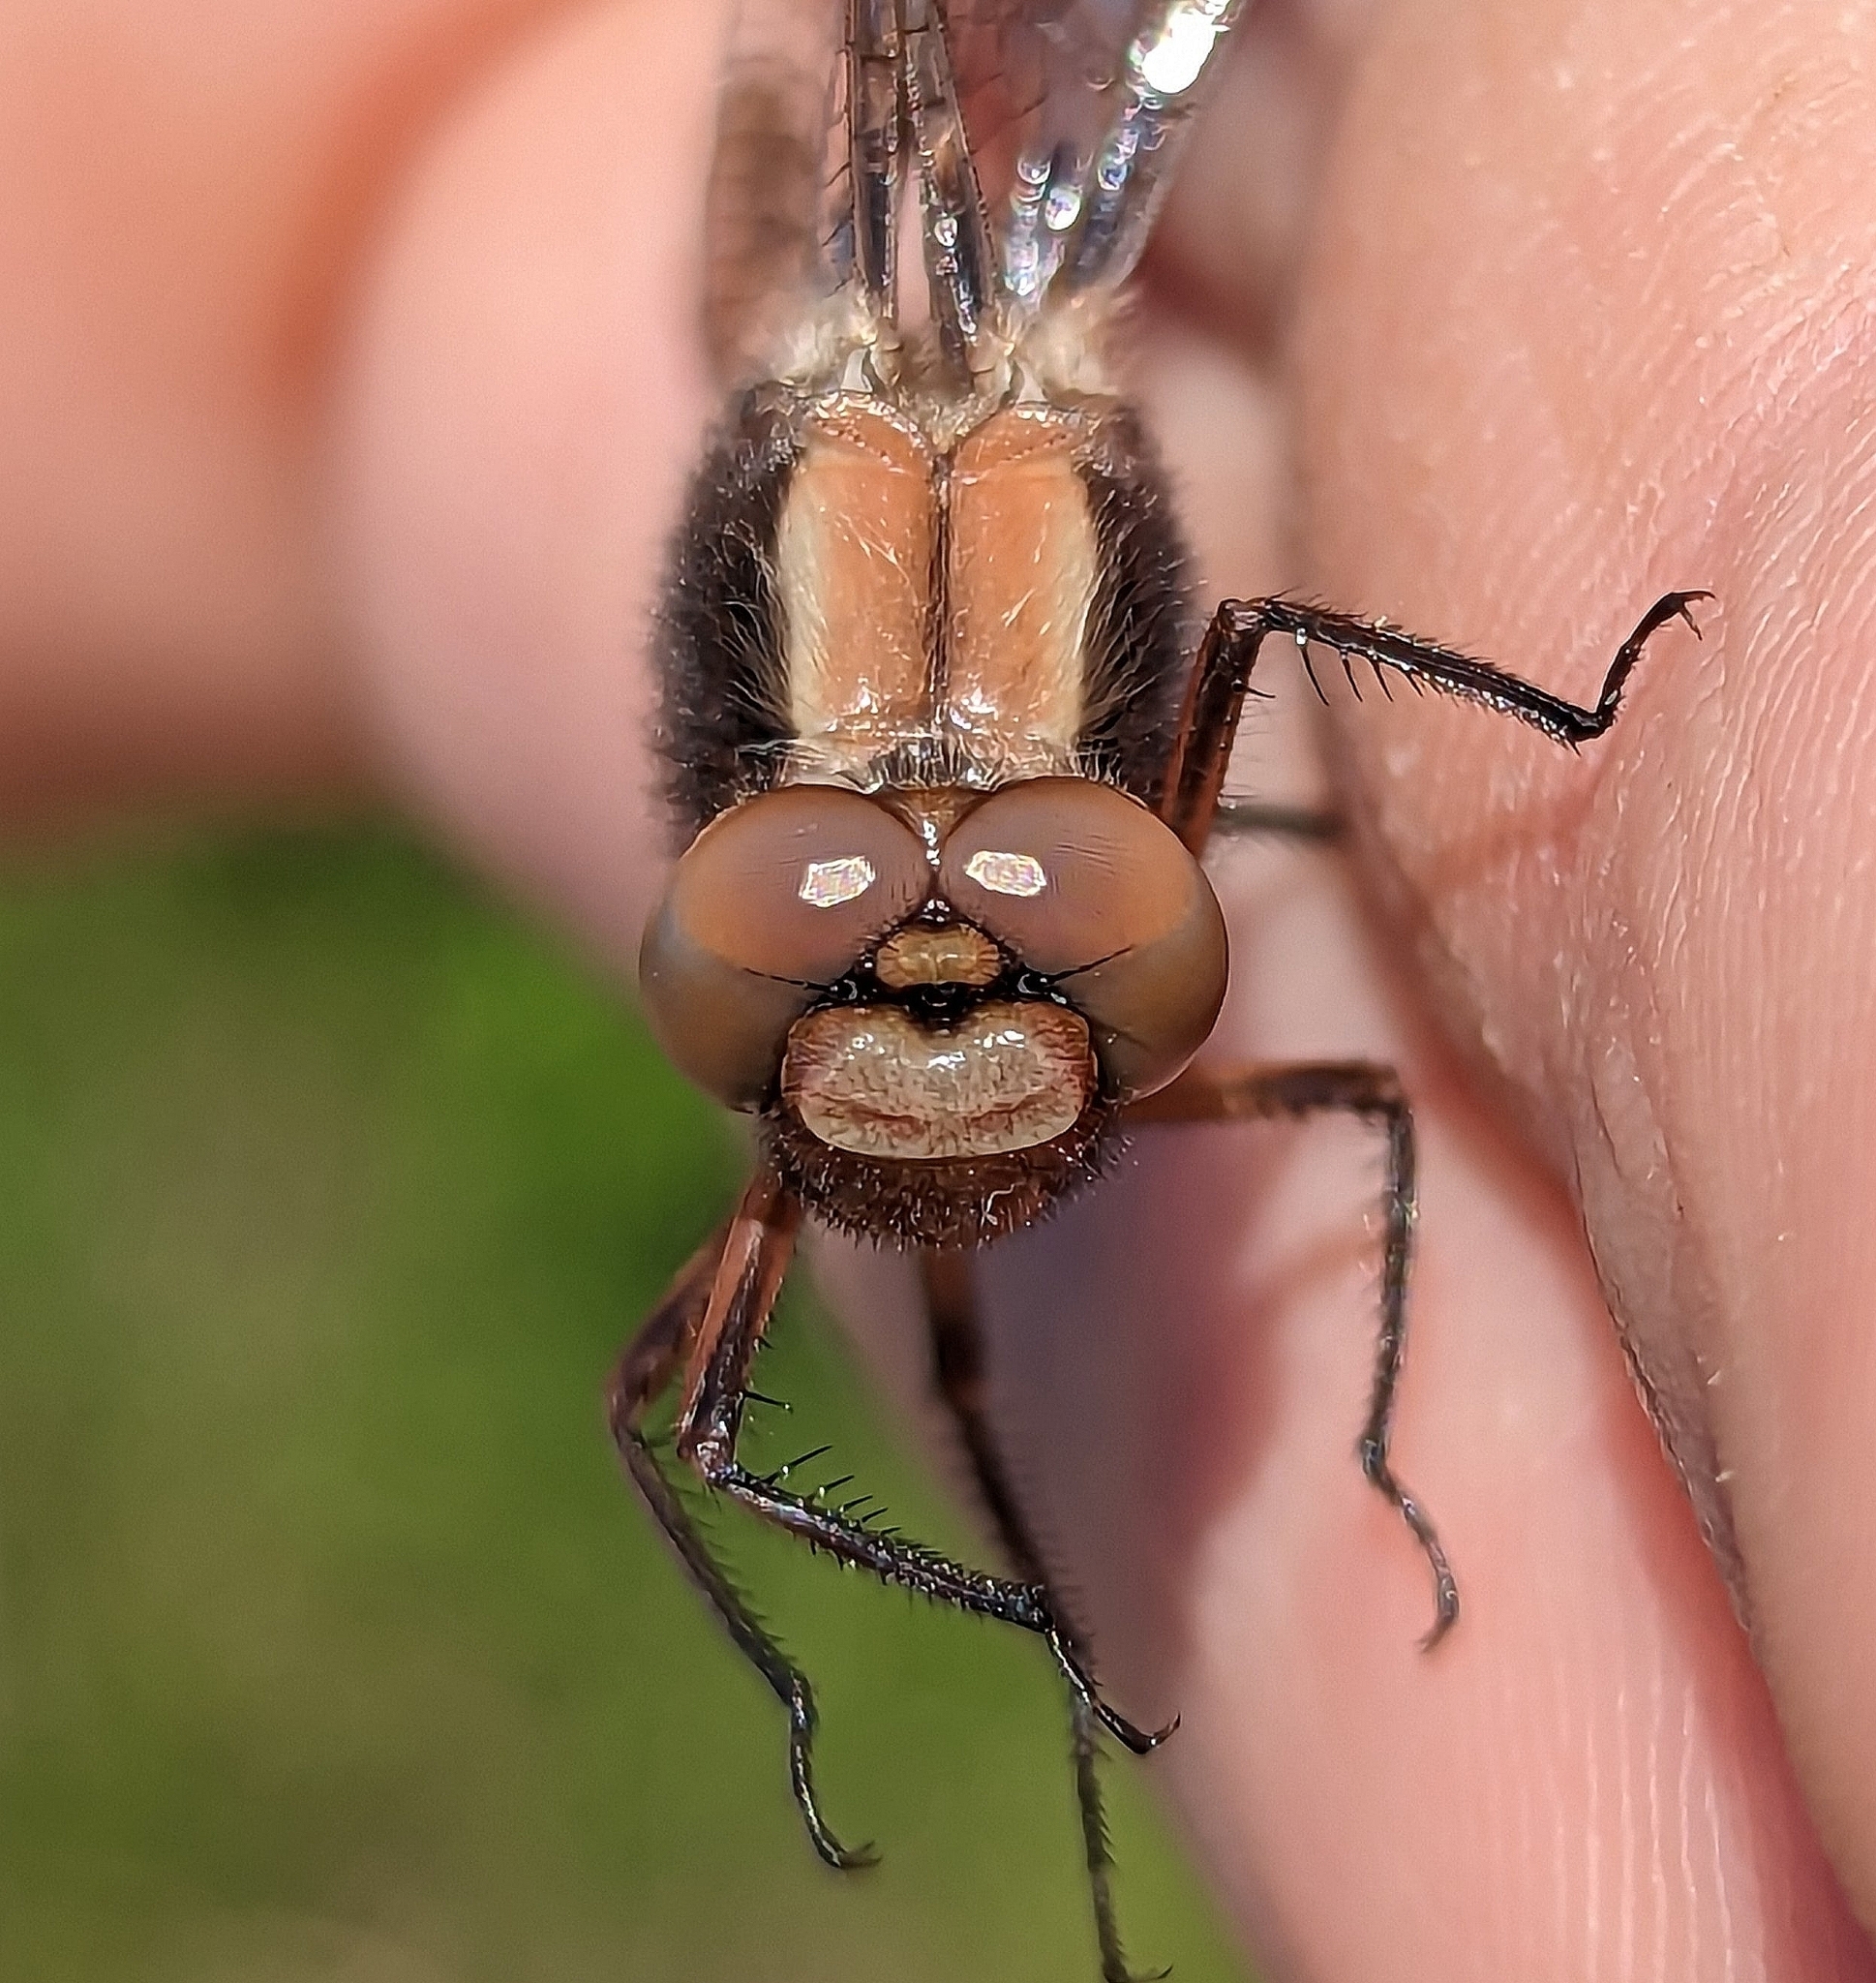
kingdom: Animalia
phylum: Arthropoda
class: Insecta
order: Odonata
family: Libellulidae
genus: Ladona
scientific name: Ladona julia
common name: Chalk-fronted corporal
